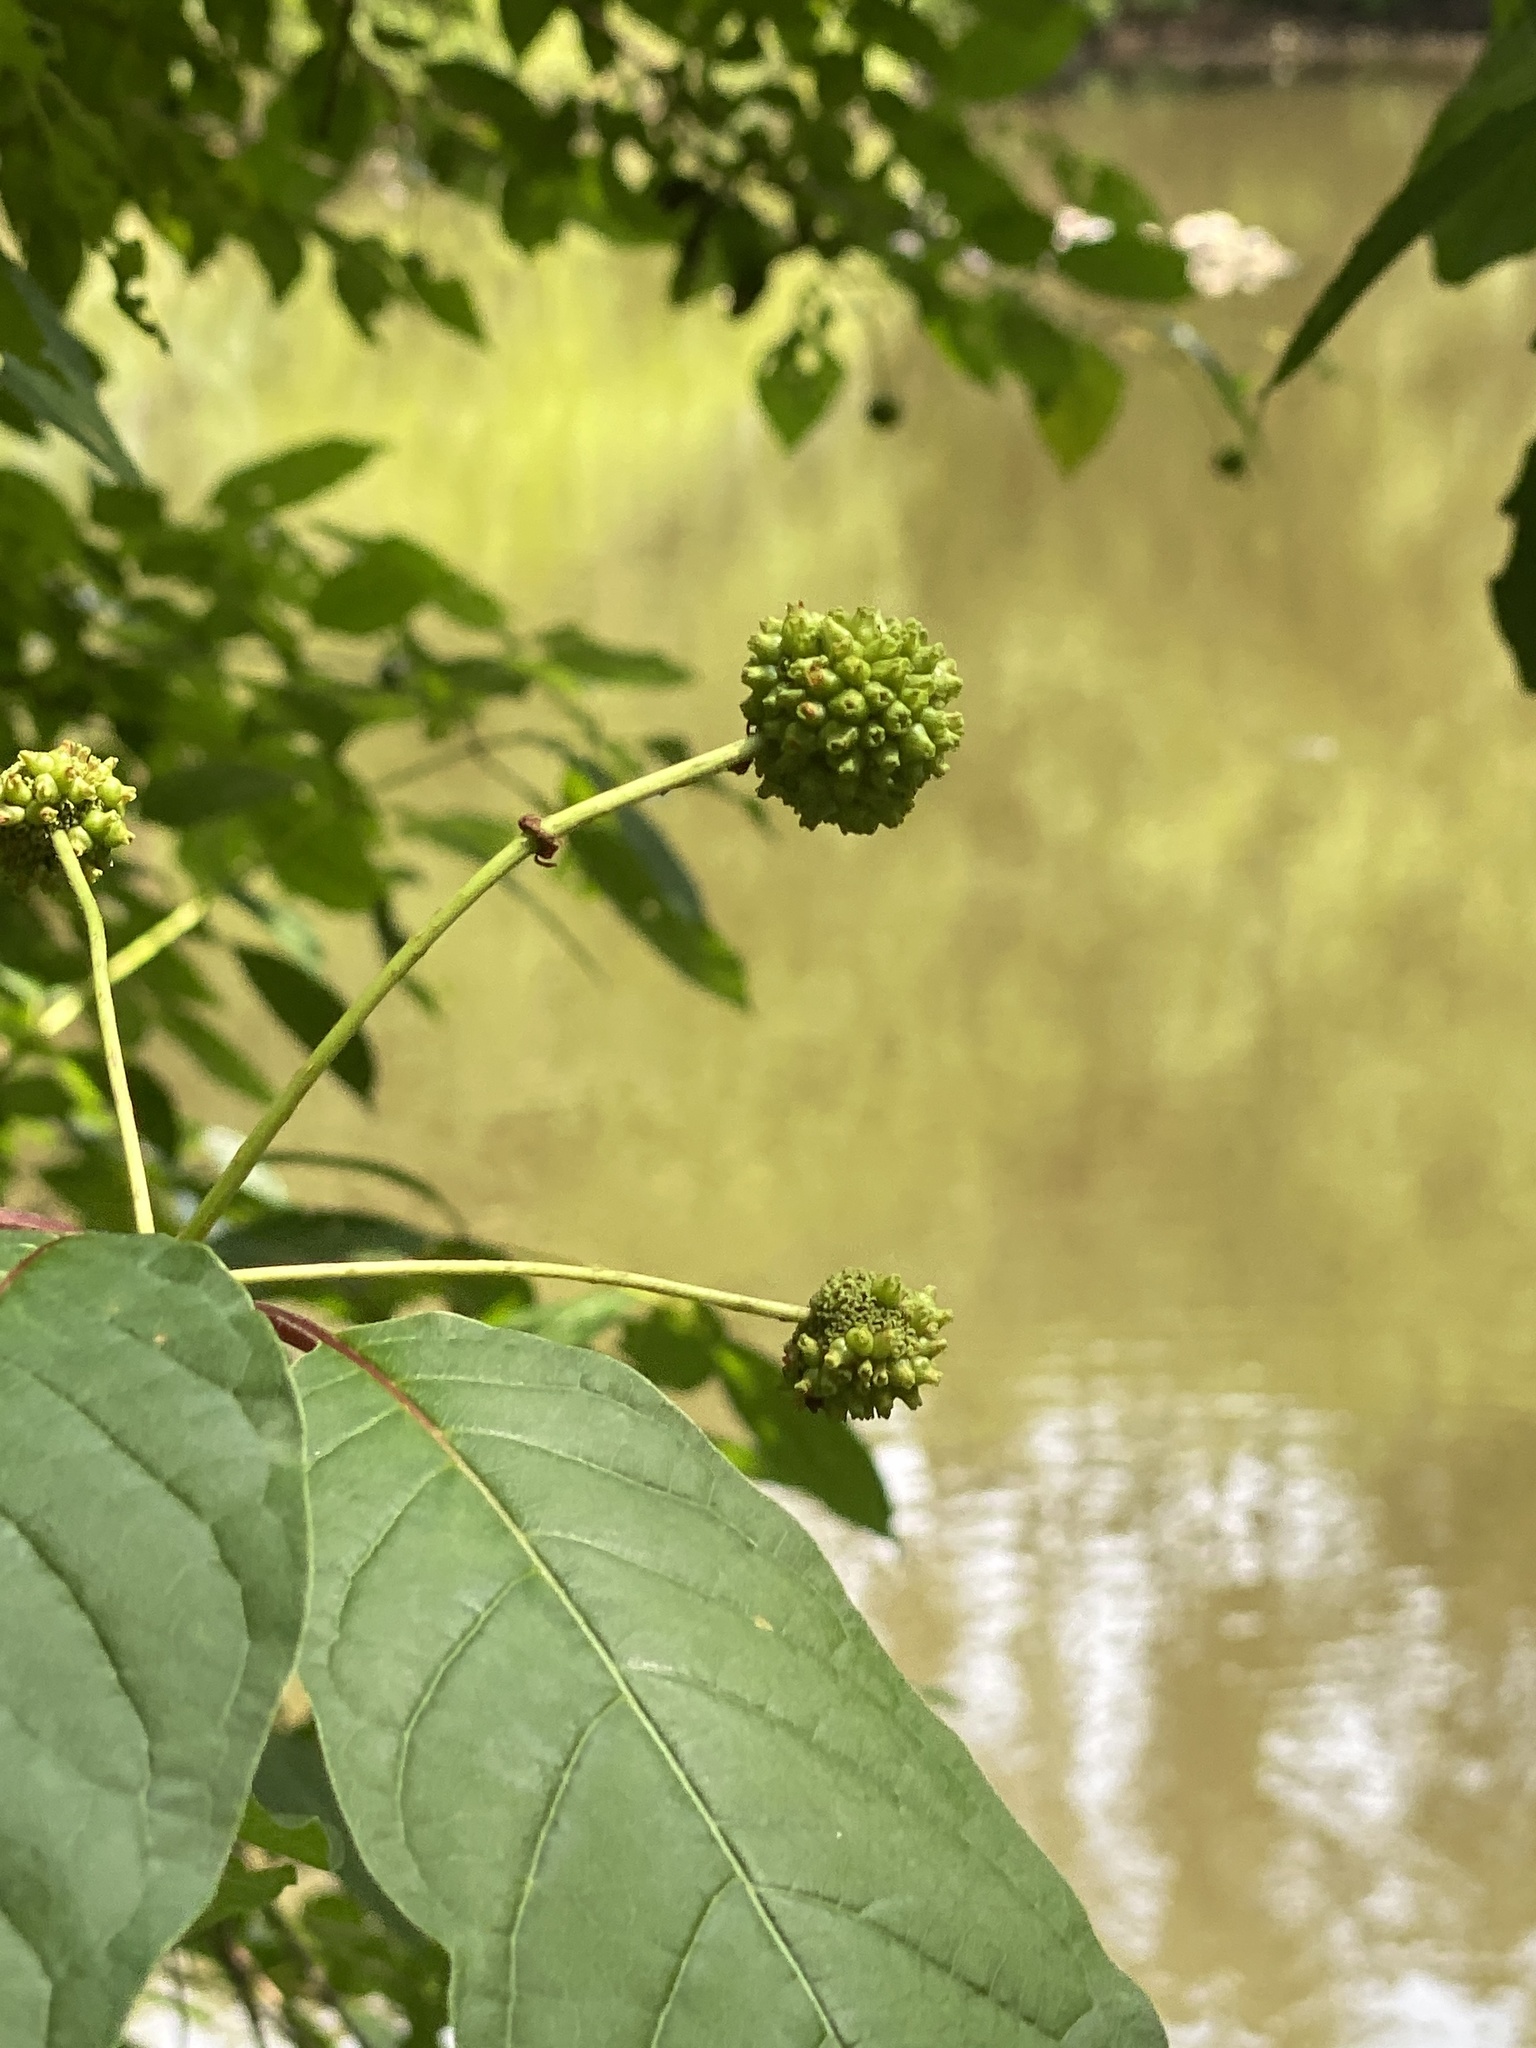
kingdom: Plantae
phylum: Tracheophyta
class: Magnoliopsida
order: Gentianales
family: Rubiaceae
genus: Cephalanthus
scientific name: Cephalanthus occidentalis
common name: Button-willow
